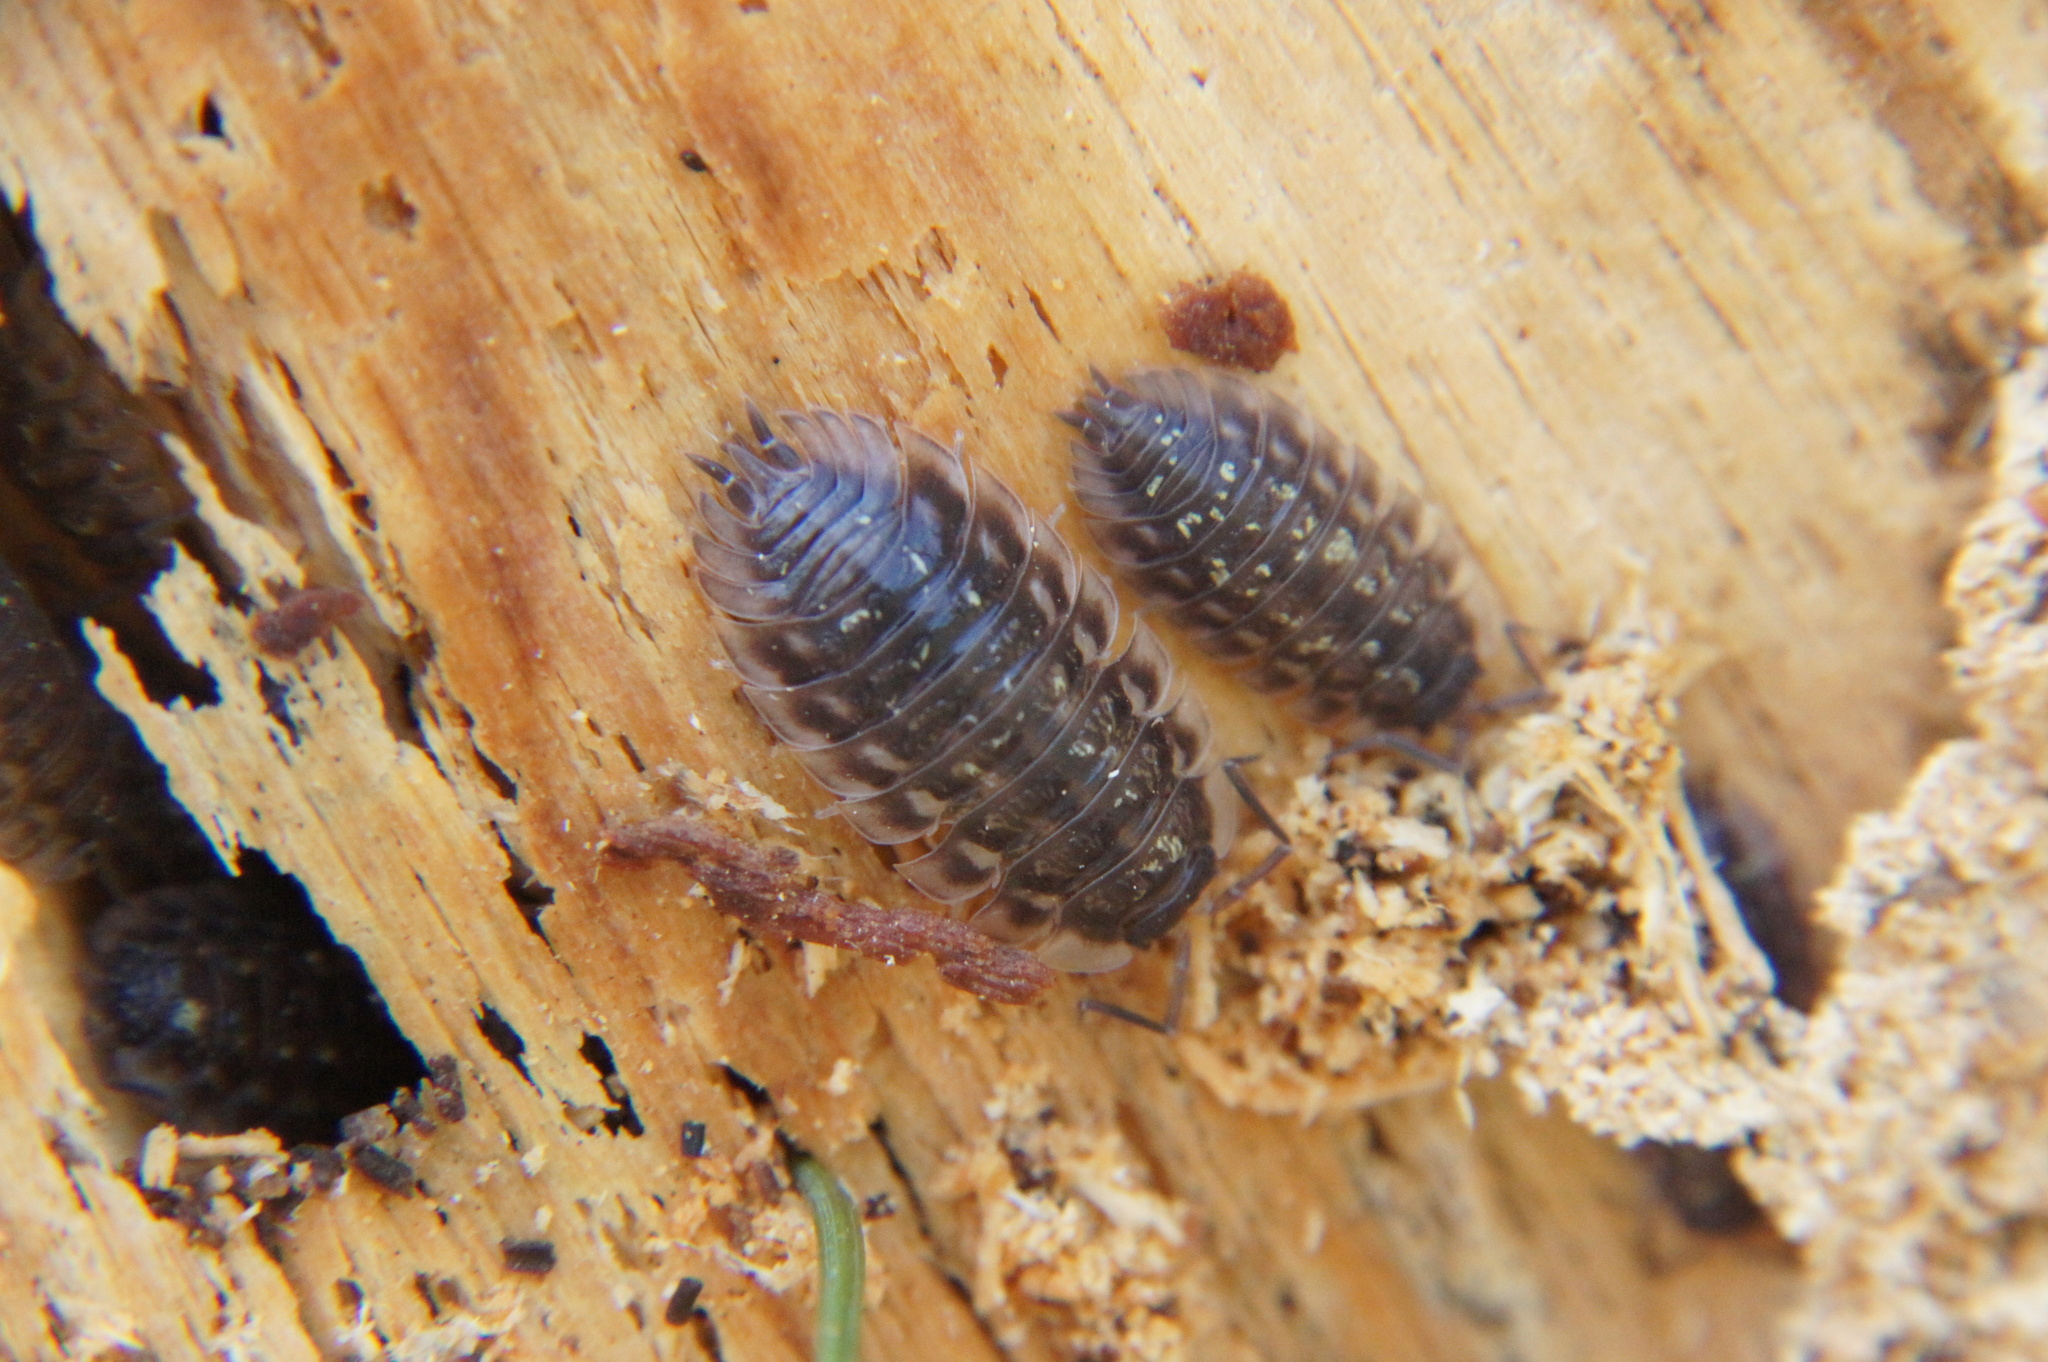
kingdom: Animalia
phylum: Arthropoda
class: Malacostraca
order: Isopoda
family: Oniscidae
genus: Oniscus
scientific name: Oniscus asellus
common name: Common shiny woodlouse
